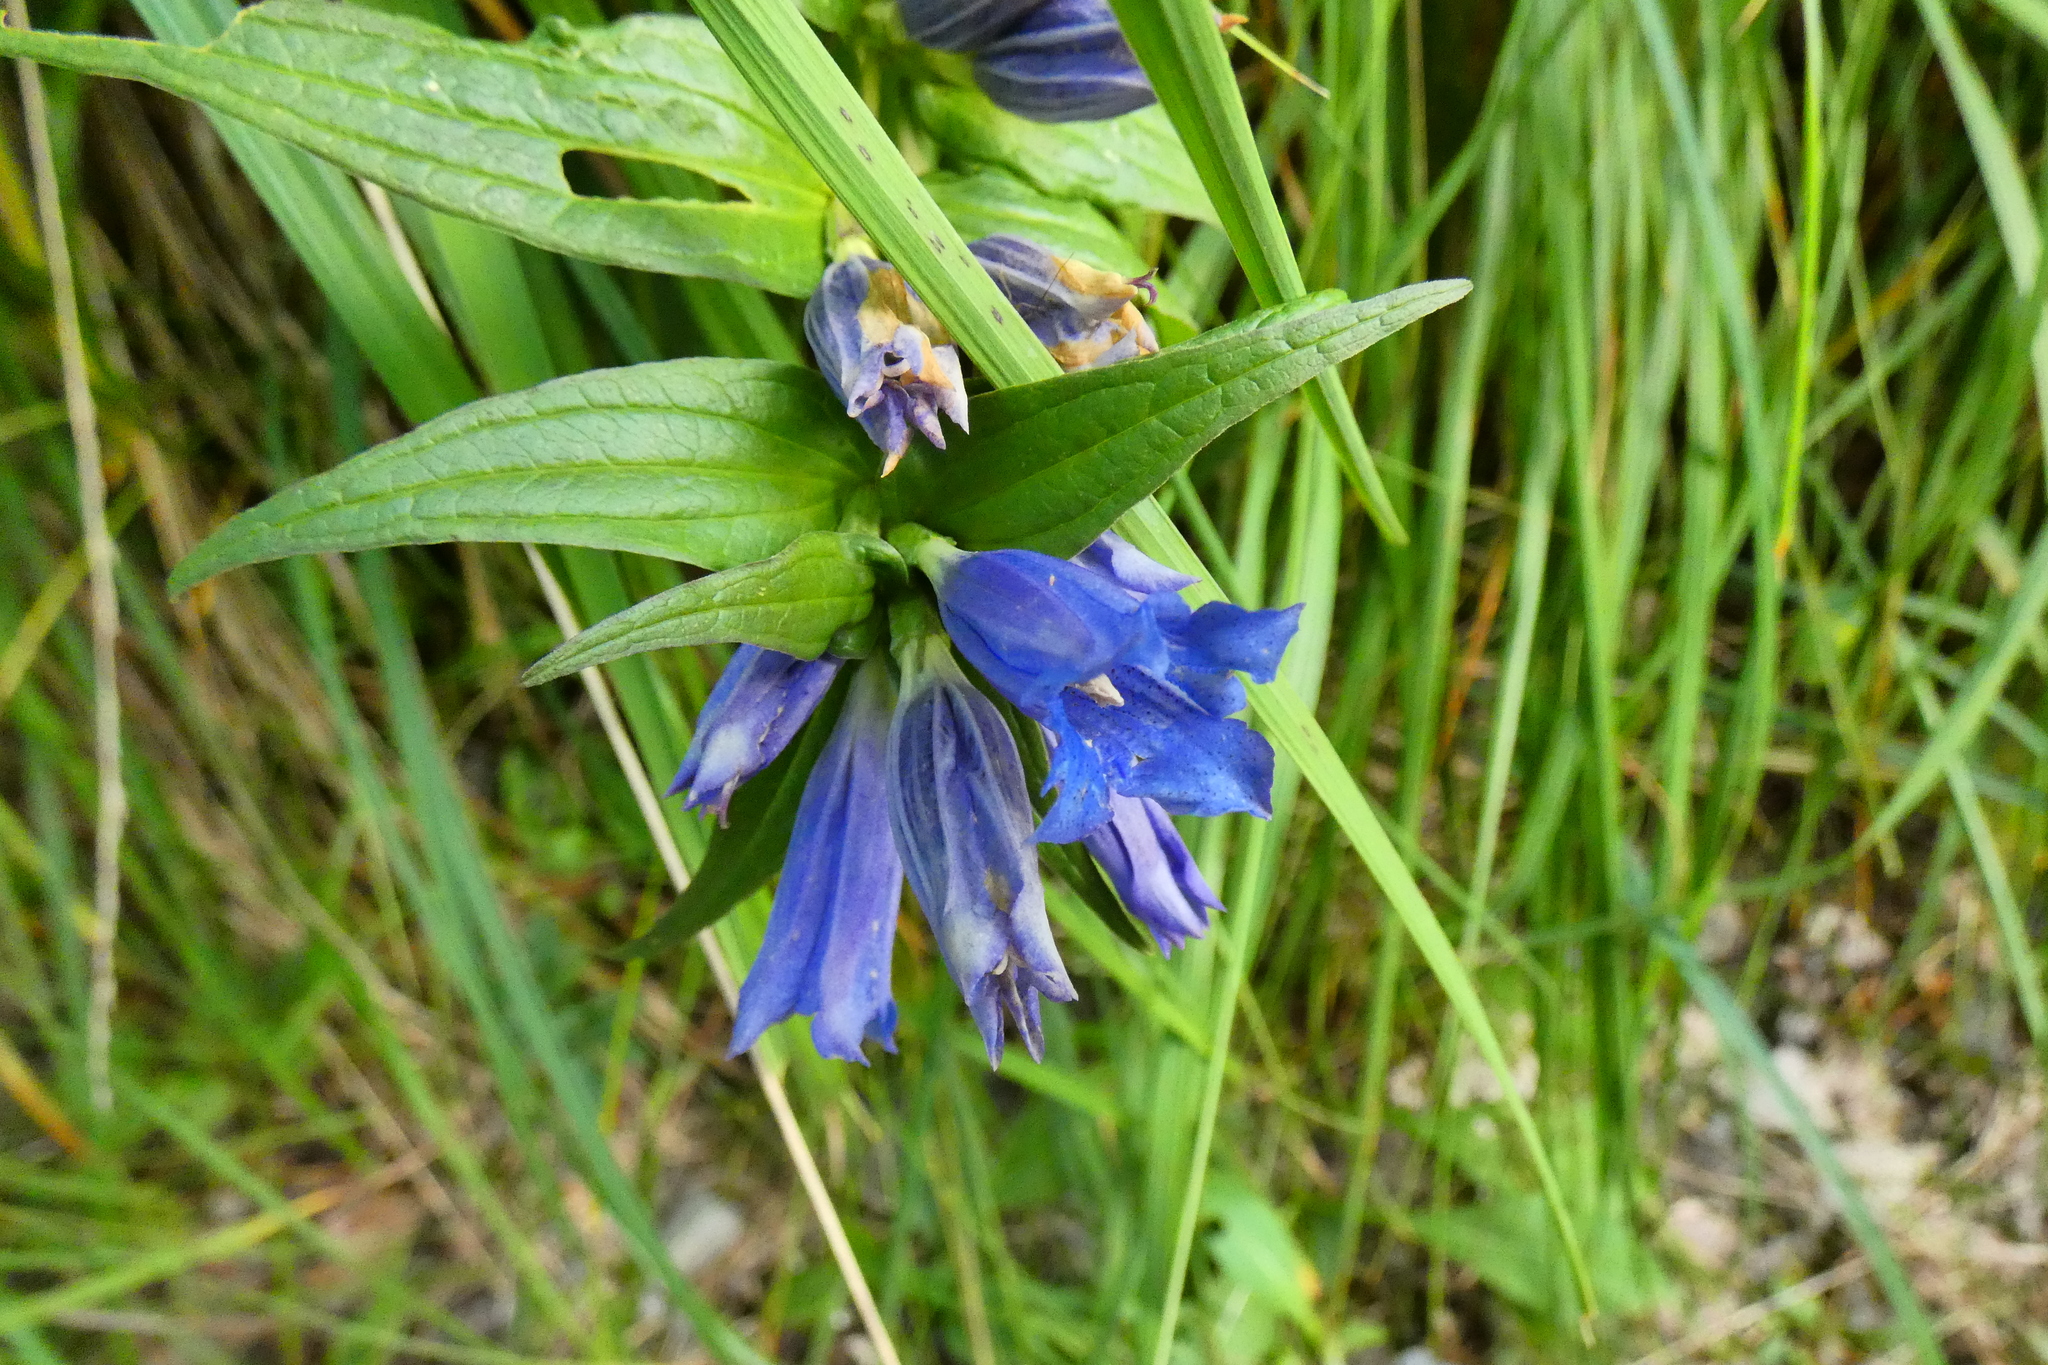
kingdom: Plantae
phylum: Tracheophyta
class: Magnoliopsida
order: Gentianales
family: Gentianaceae
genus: Gentiana
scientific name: Gentiana asclepiadea
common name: Willow gentian
